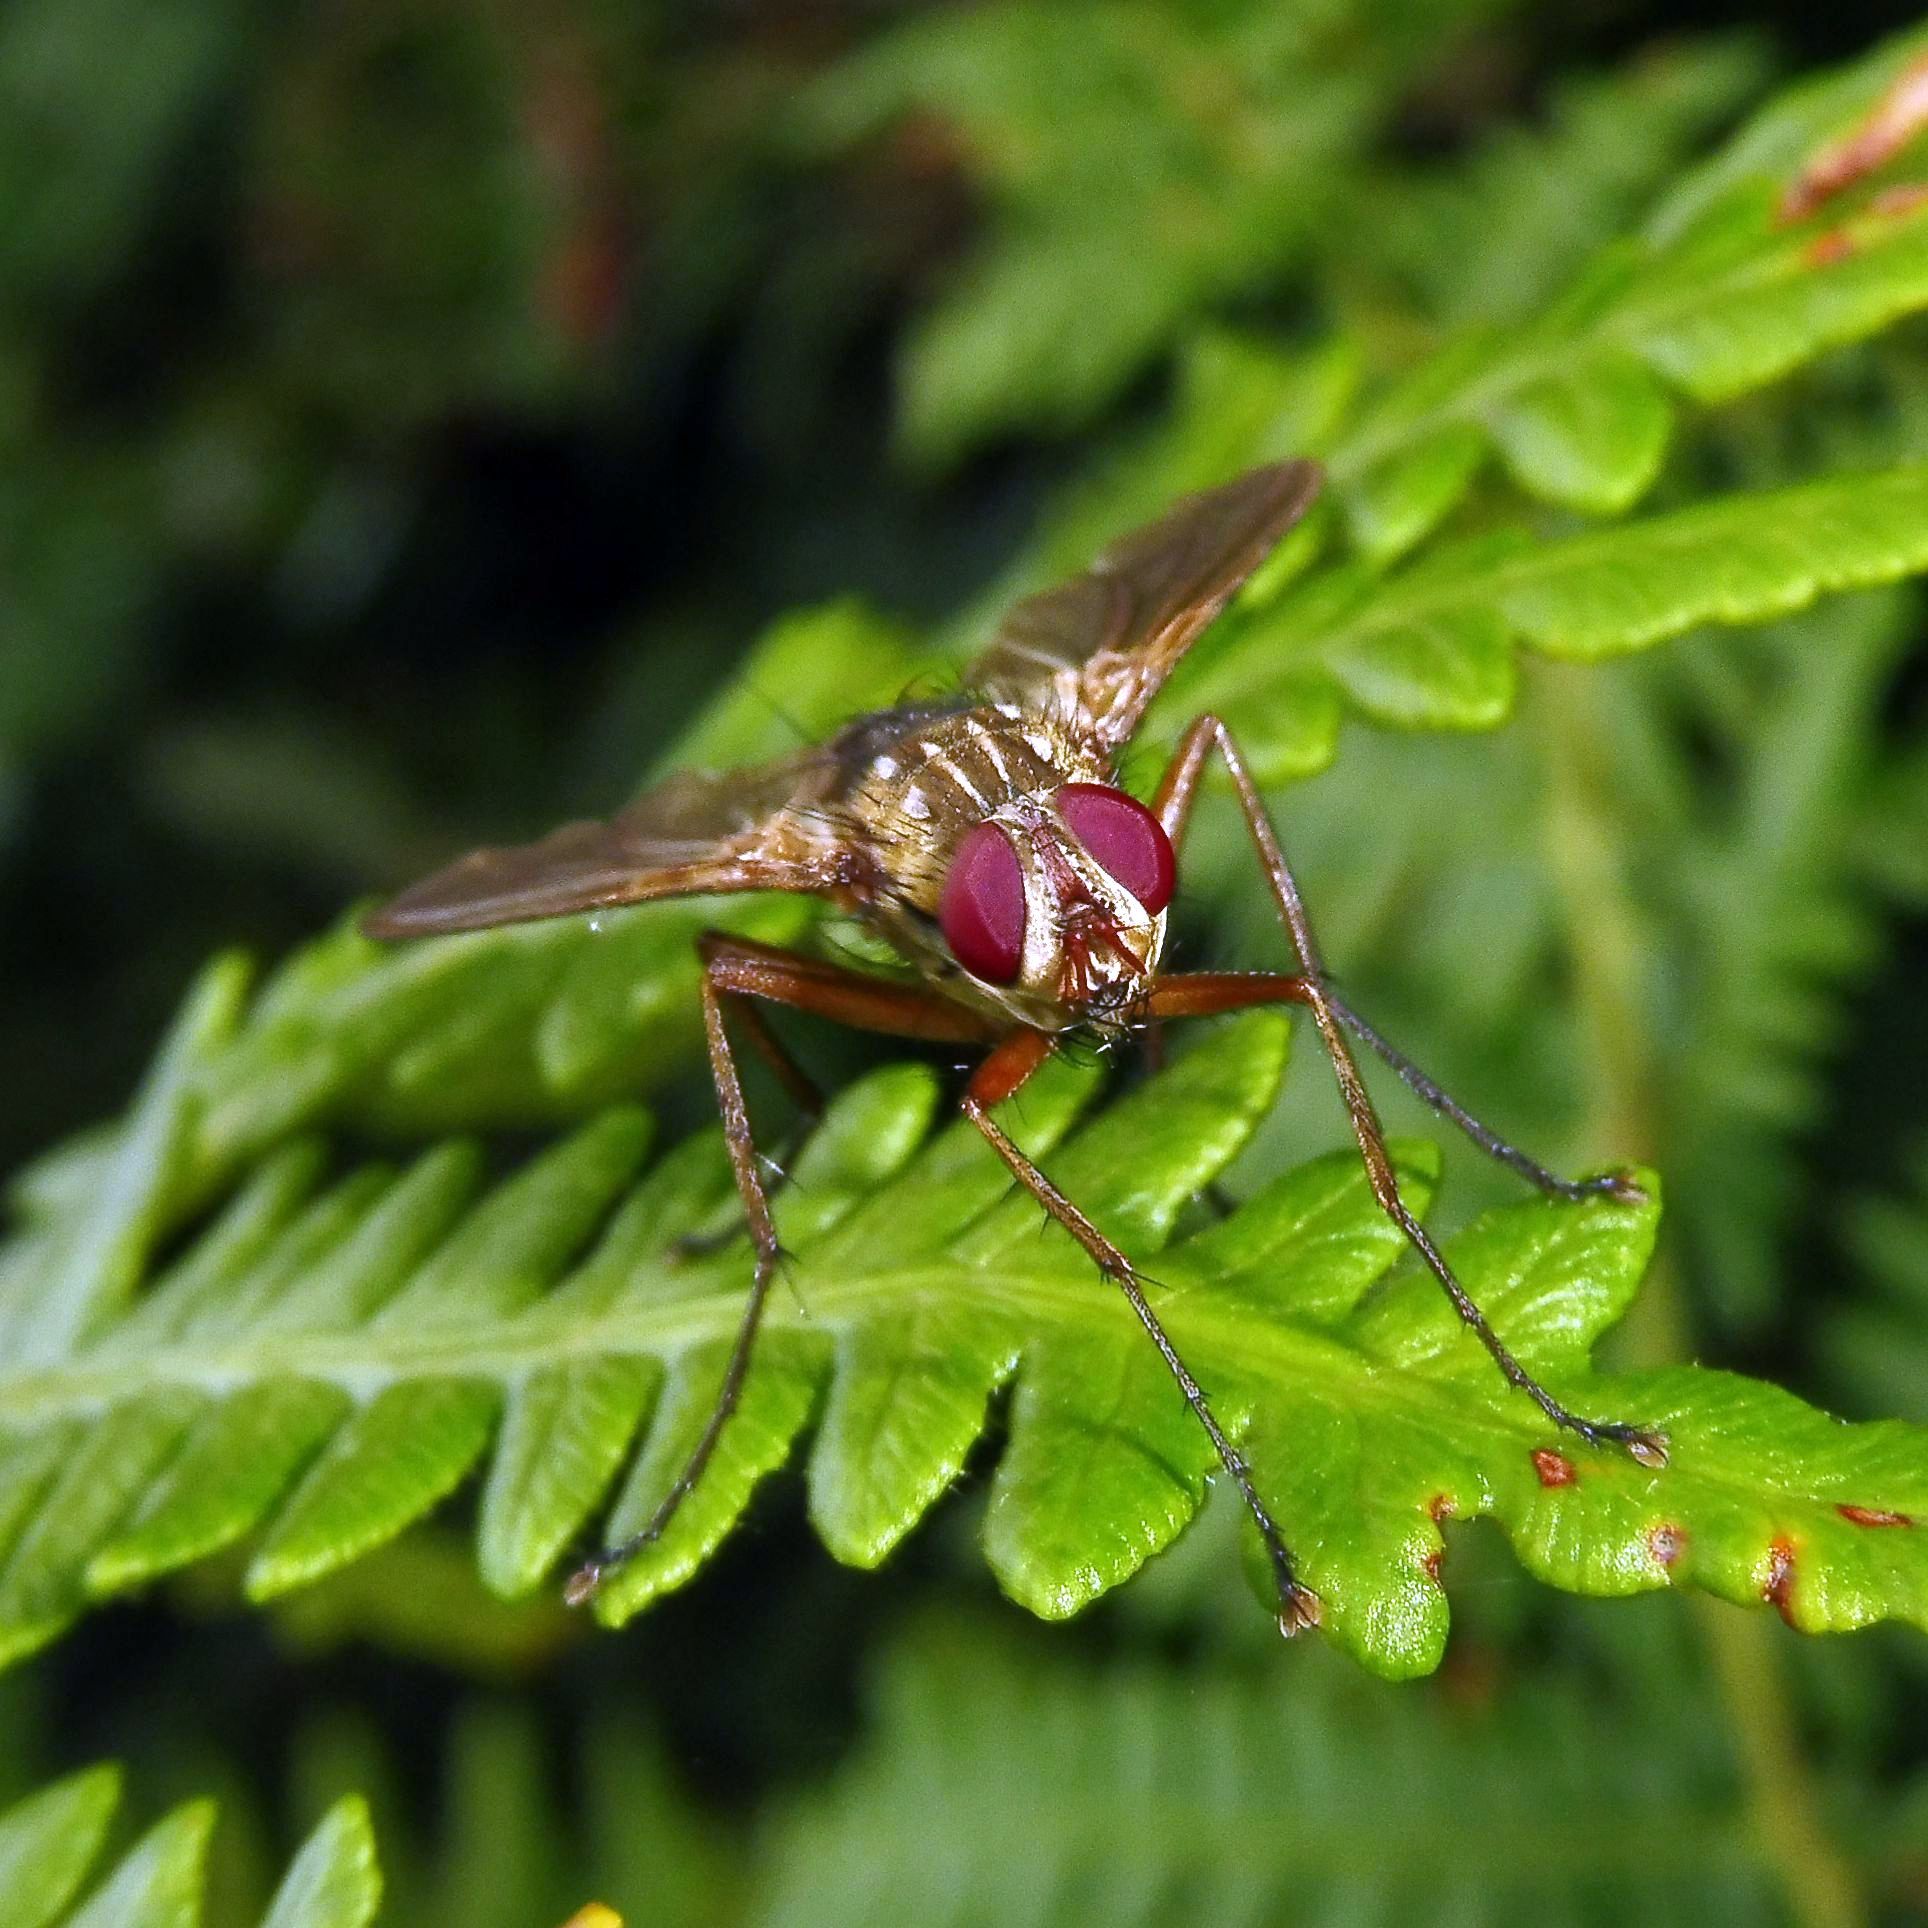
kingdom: Animalia
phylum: Arthropoda
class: Insecta
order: Diptera
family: Tachinidae
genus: Dexiosoma
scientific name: Dexiosoma caninum
